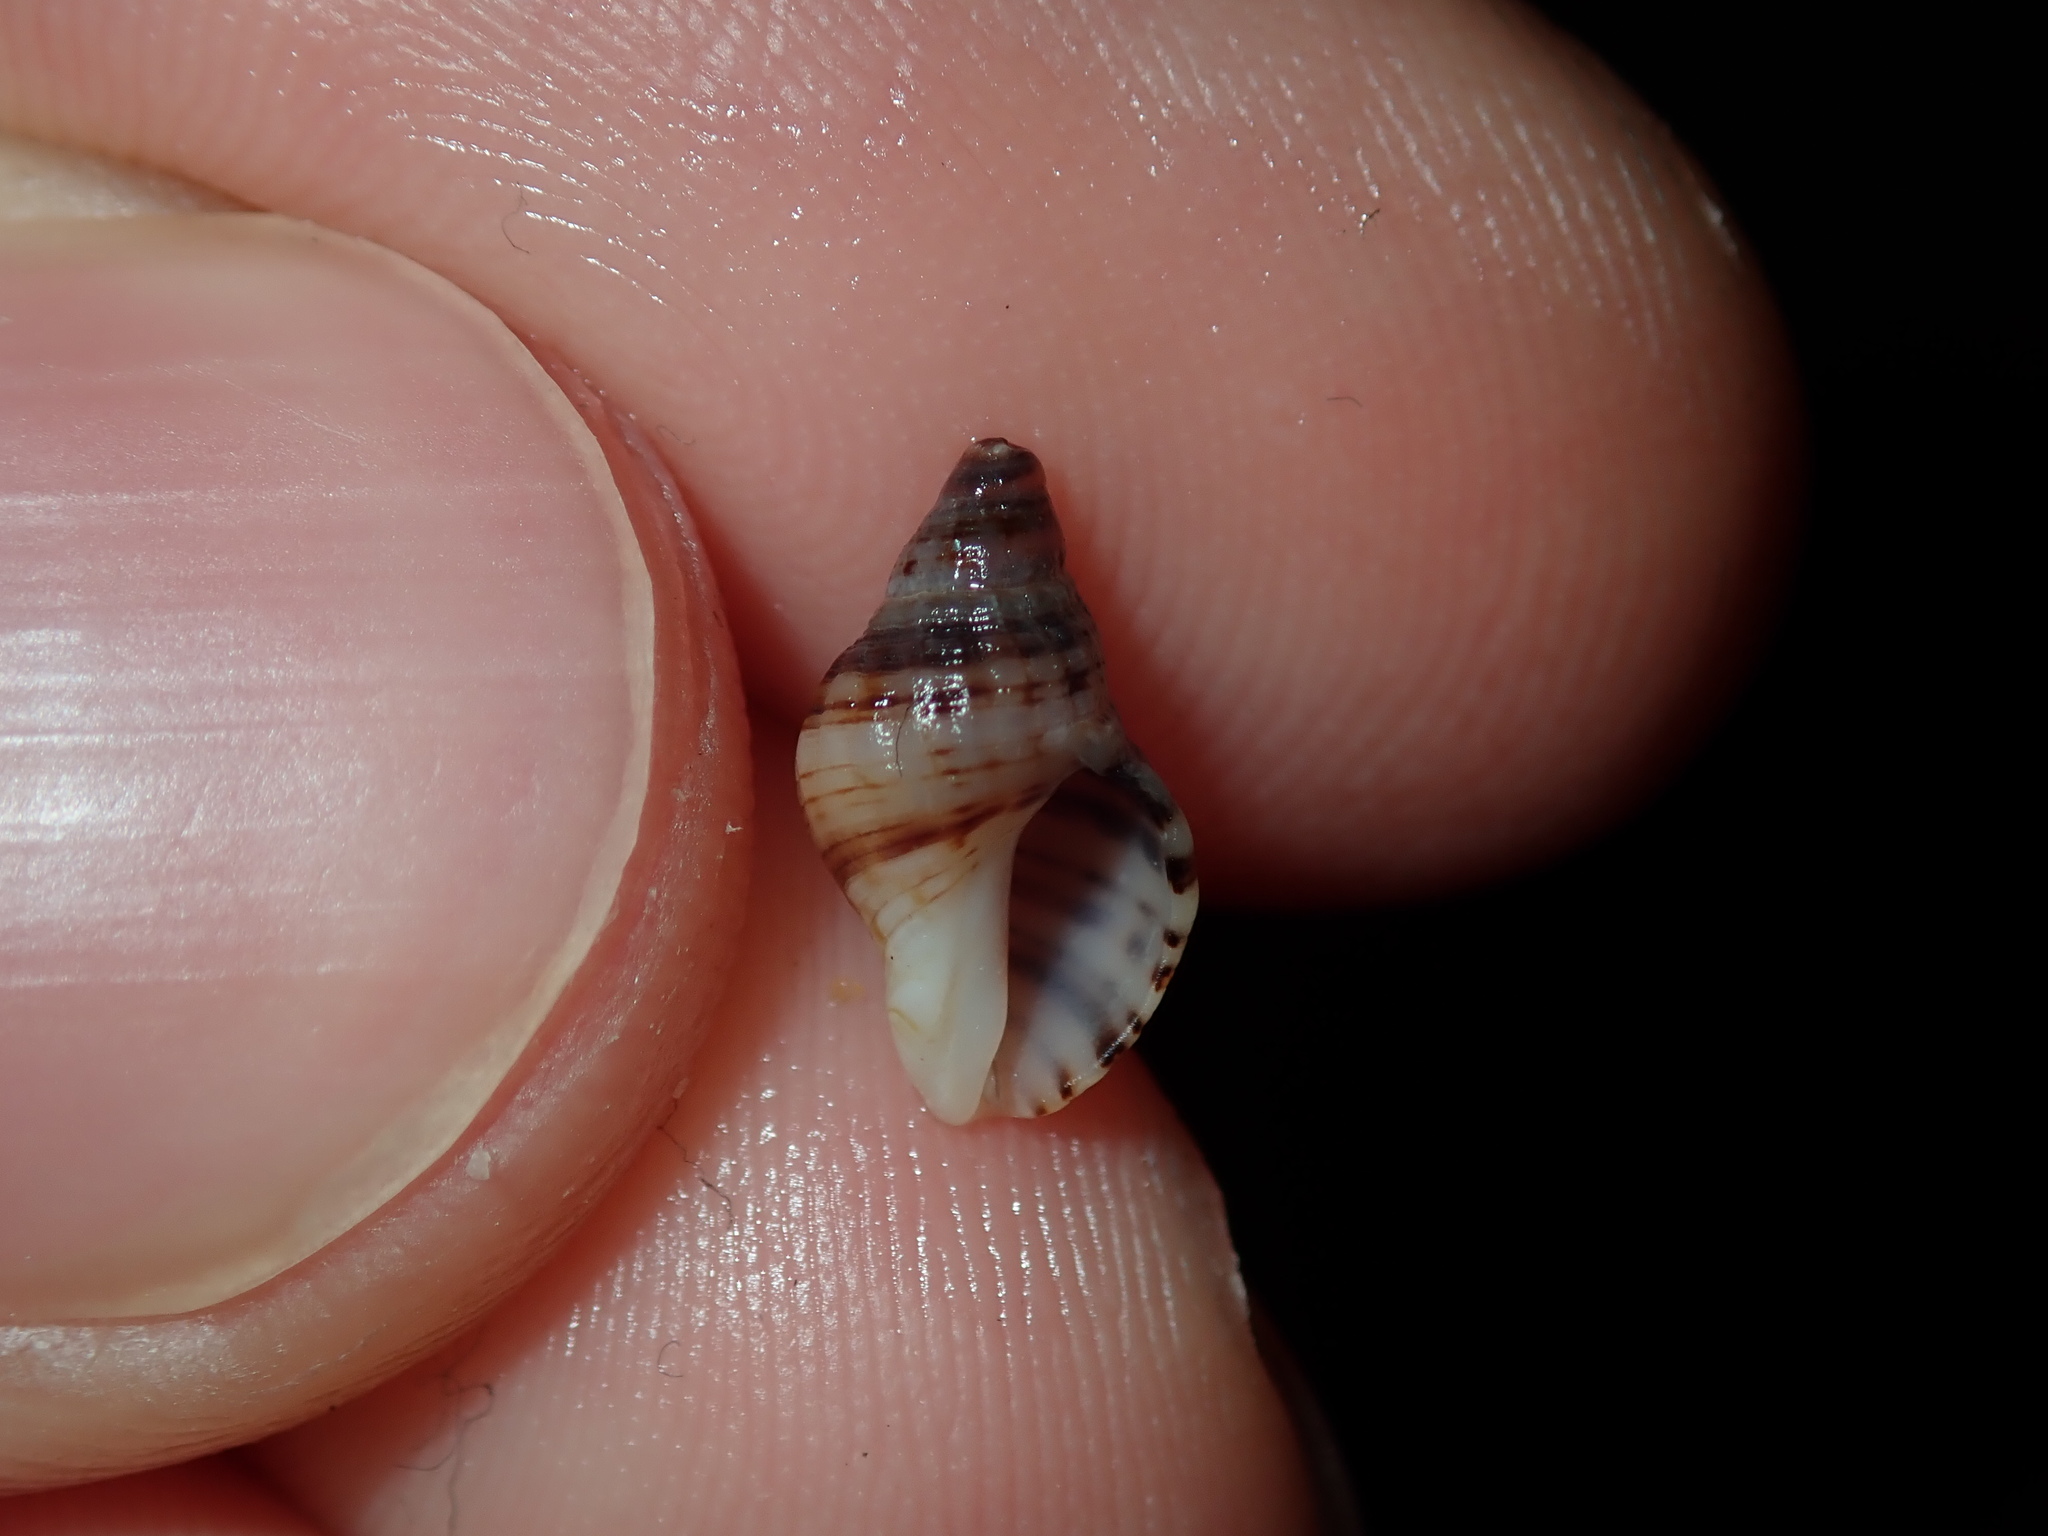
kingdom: Animalia
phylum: Mollusca
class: Gastropoda
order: Neogastropoda
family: Muricidae
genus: Agnewia
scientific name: Agnewia tritoniformis
